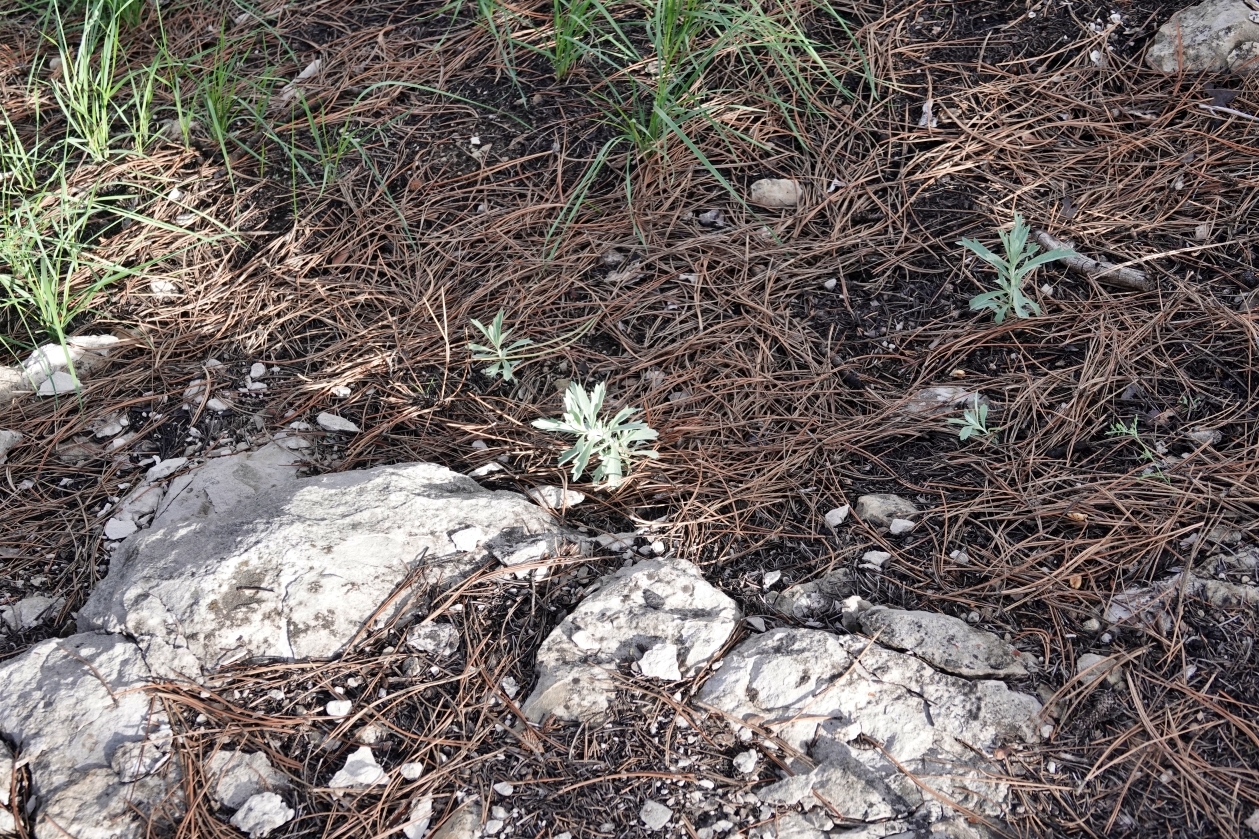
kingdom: Plantae
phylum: Tracheophyta
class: Magnoliopsida
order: Asterales
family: Asteraceae
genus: Artemisia
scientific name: Artemisia ludoviciana
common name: Western mugwort
